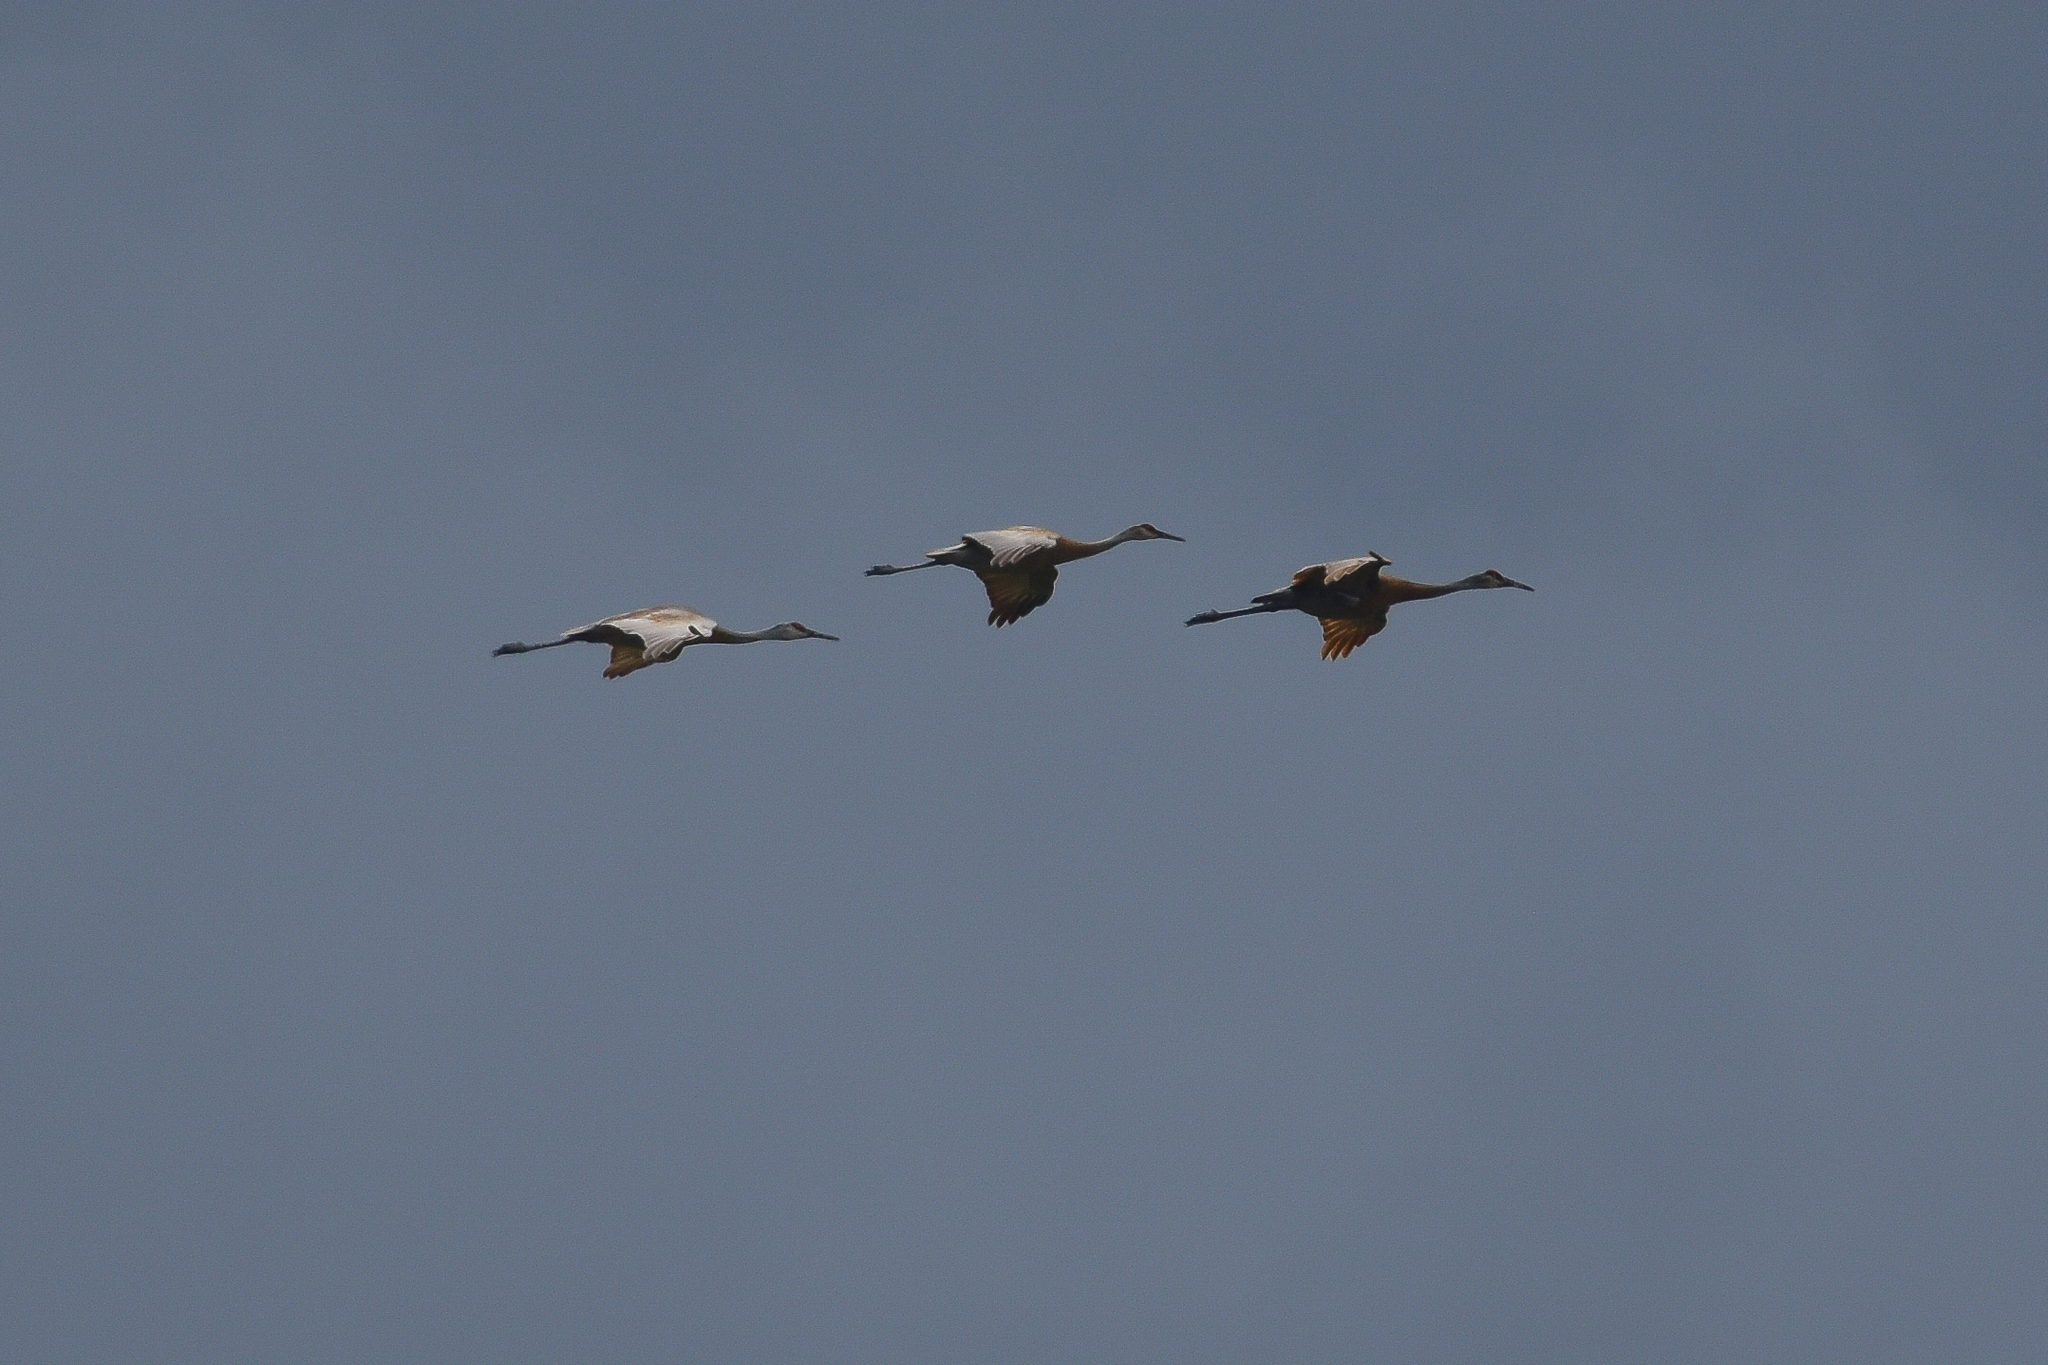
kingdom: Animalia
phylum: Chordata
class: Aves
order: Gruiformes
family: Gruidae
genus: Grus
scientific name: Grus canadensis
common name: Sandhill crane
